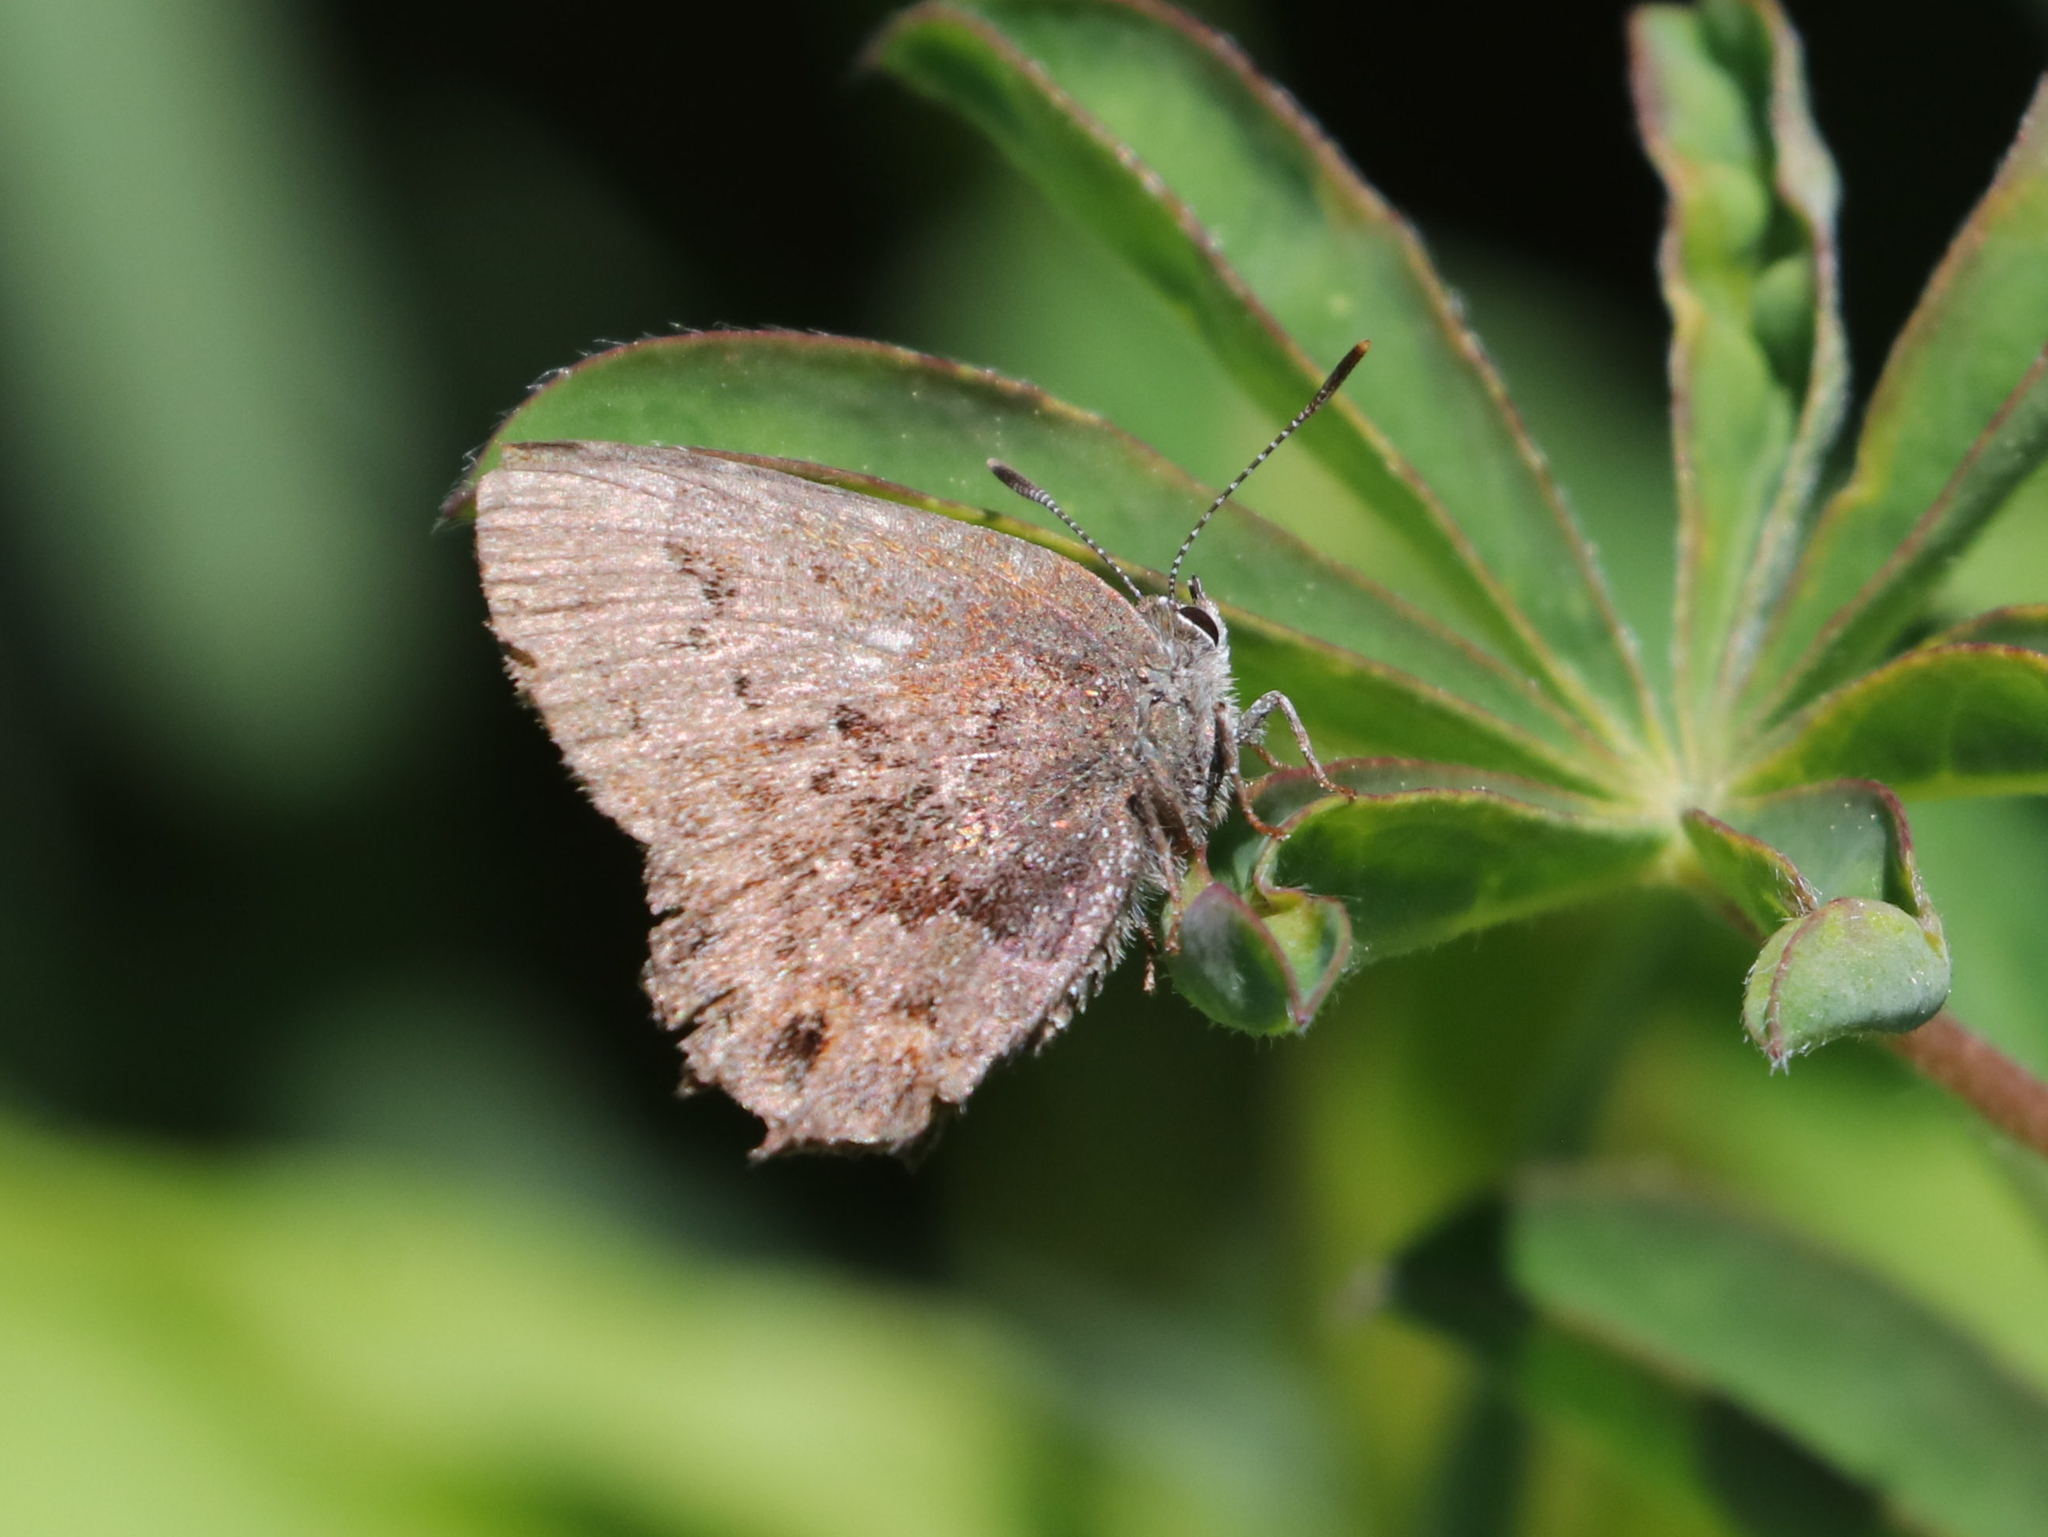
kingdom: Animalia
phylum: Arthropoda
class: Insecta
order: Lepidoptera
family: Lycaenidae
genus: Thecla
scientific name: Thecla irus
